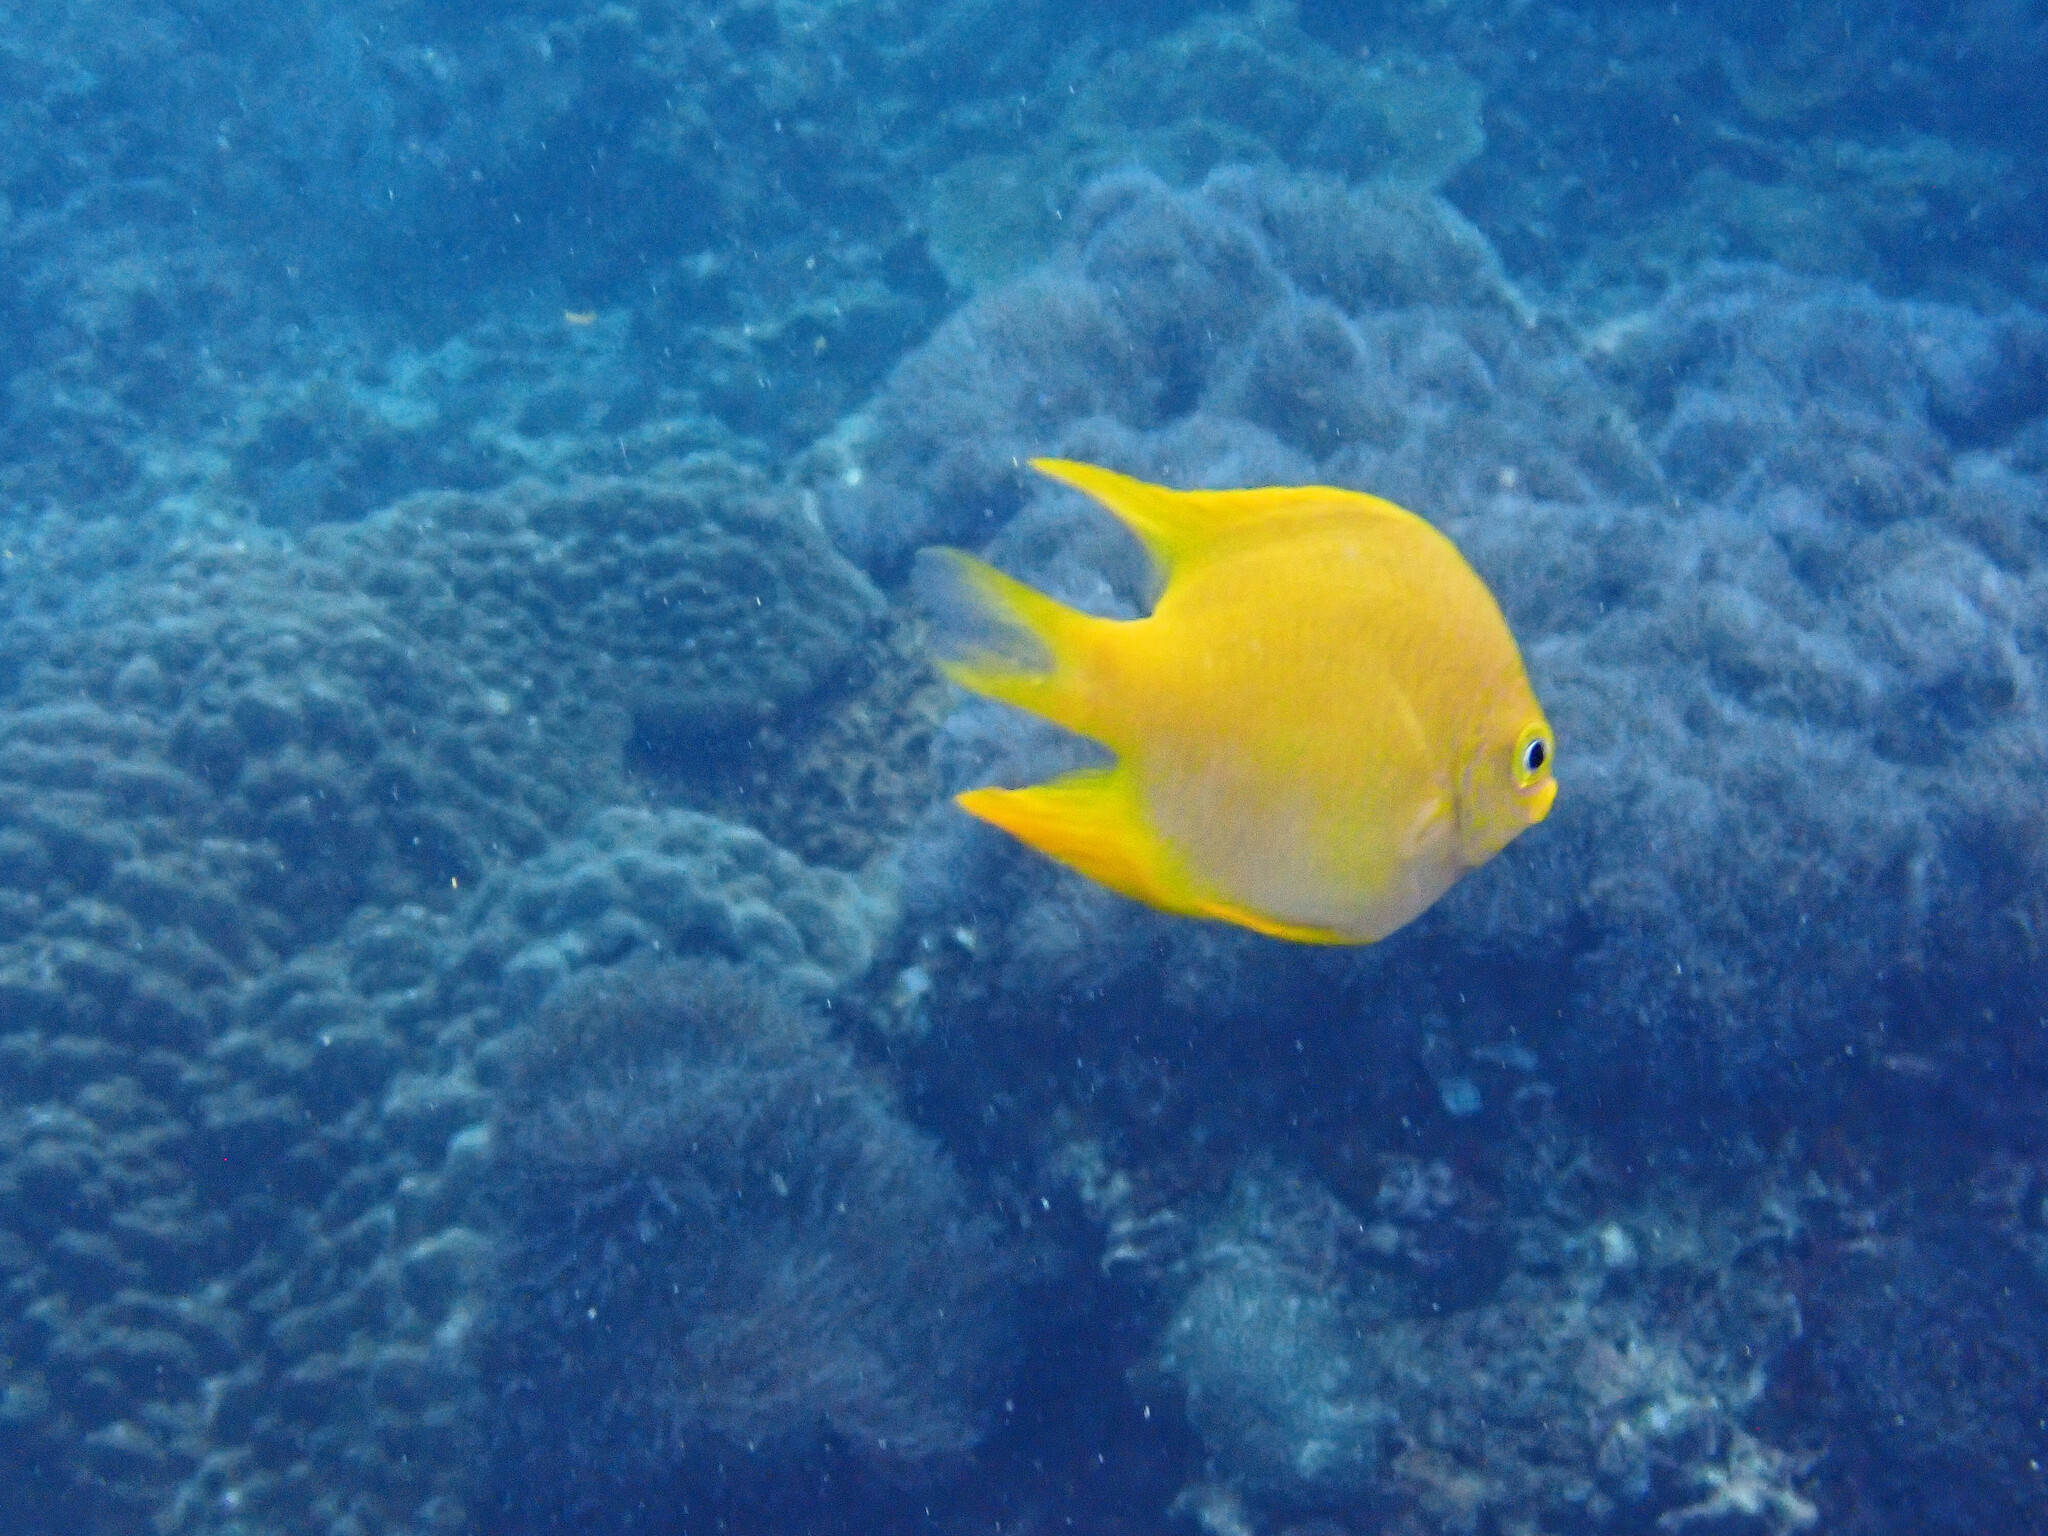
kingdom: Animalia
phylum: Chordata
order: Perciformes
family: Pomacentridae
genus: Amblyglyphidodon
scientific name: Amblyglyphidodon aureus
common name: Golden damsel
